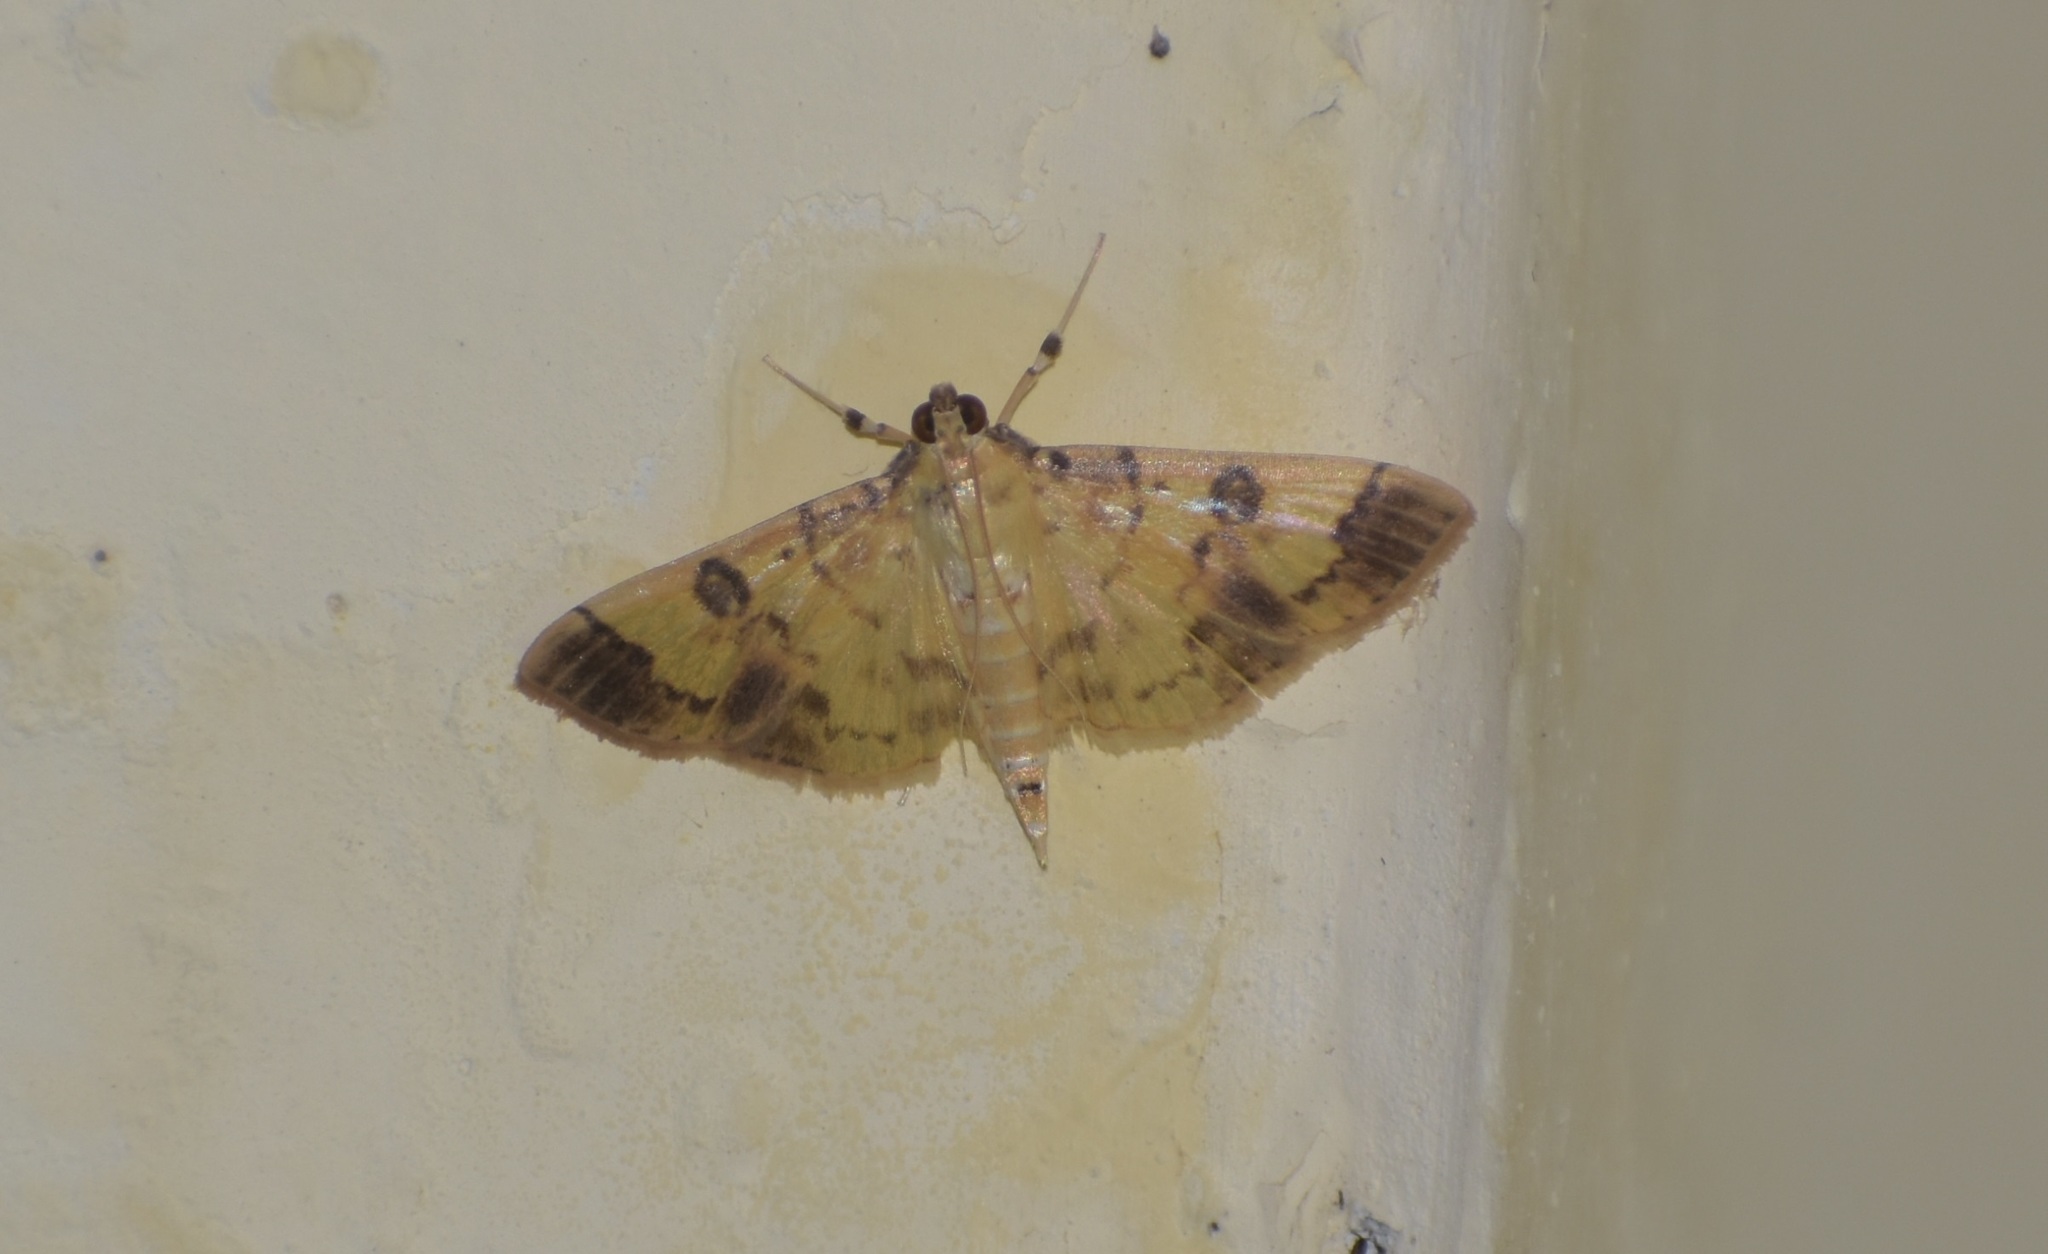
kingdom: Animalia
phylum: Arthropoda
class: Insecta
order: Lepidoptera
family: Crambidae
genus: Patania
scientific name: Patania iopasalis
